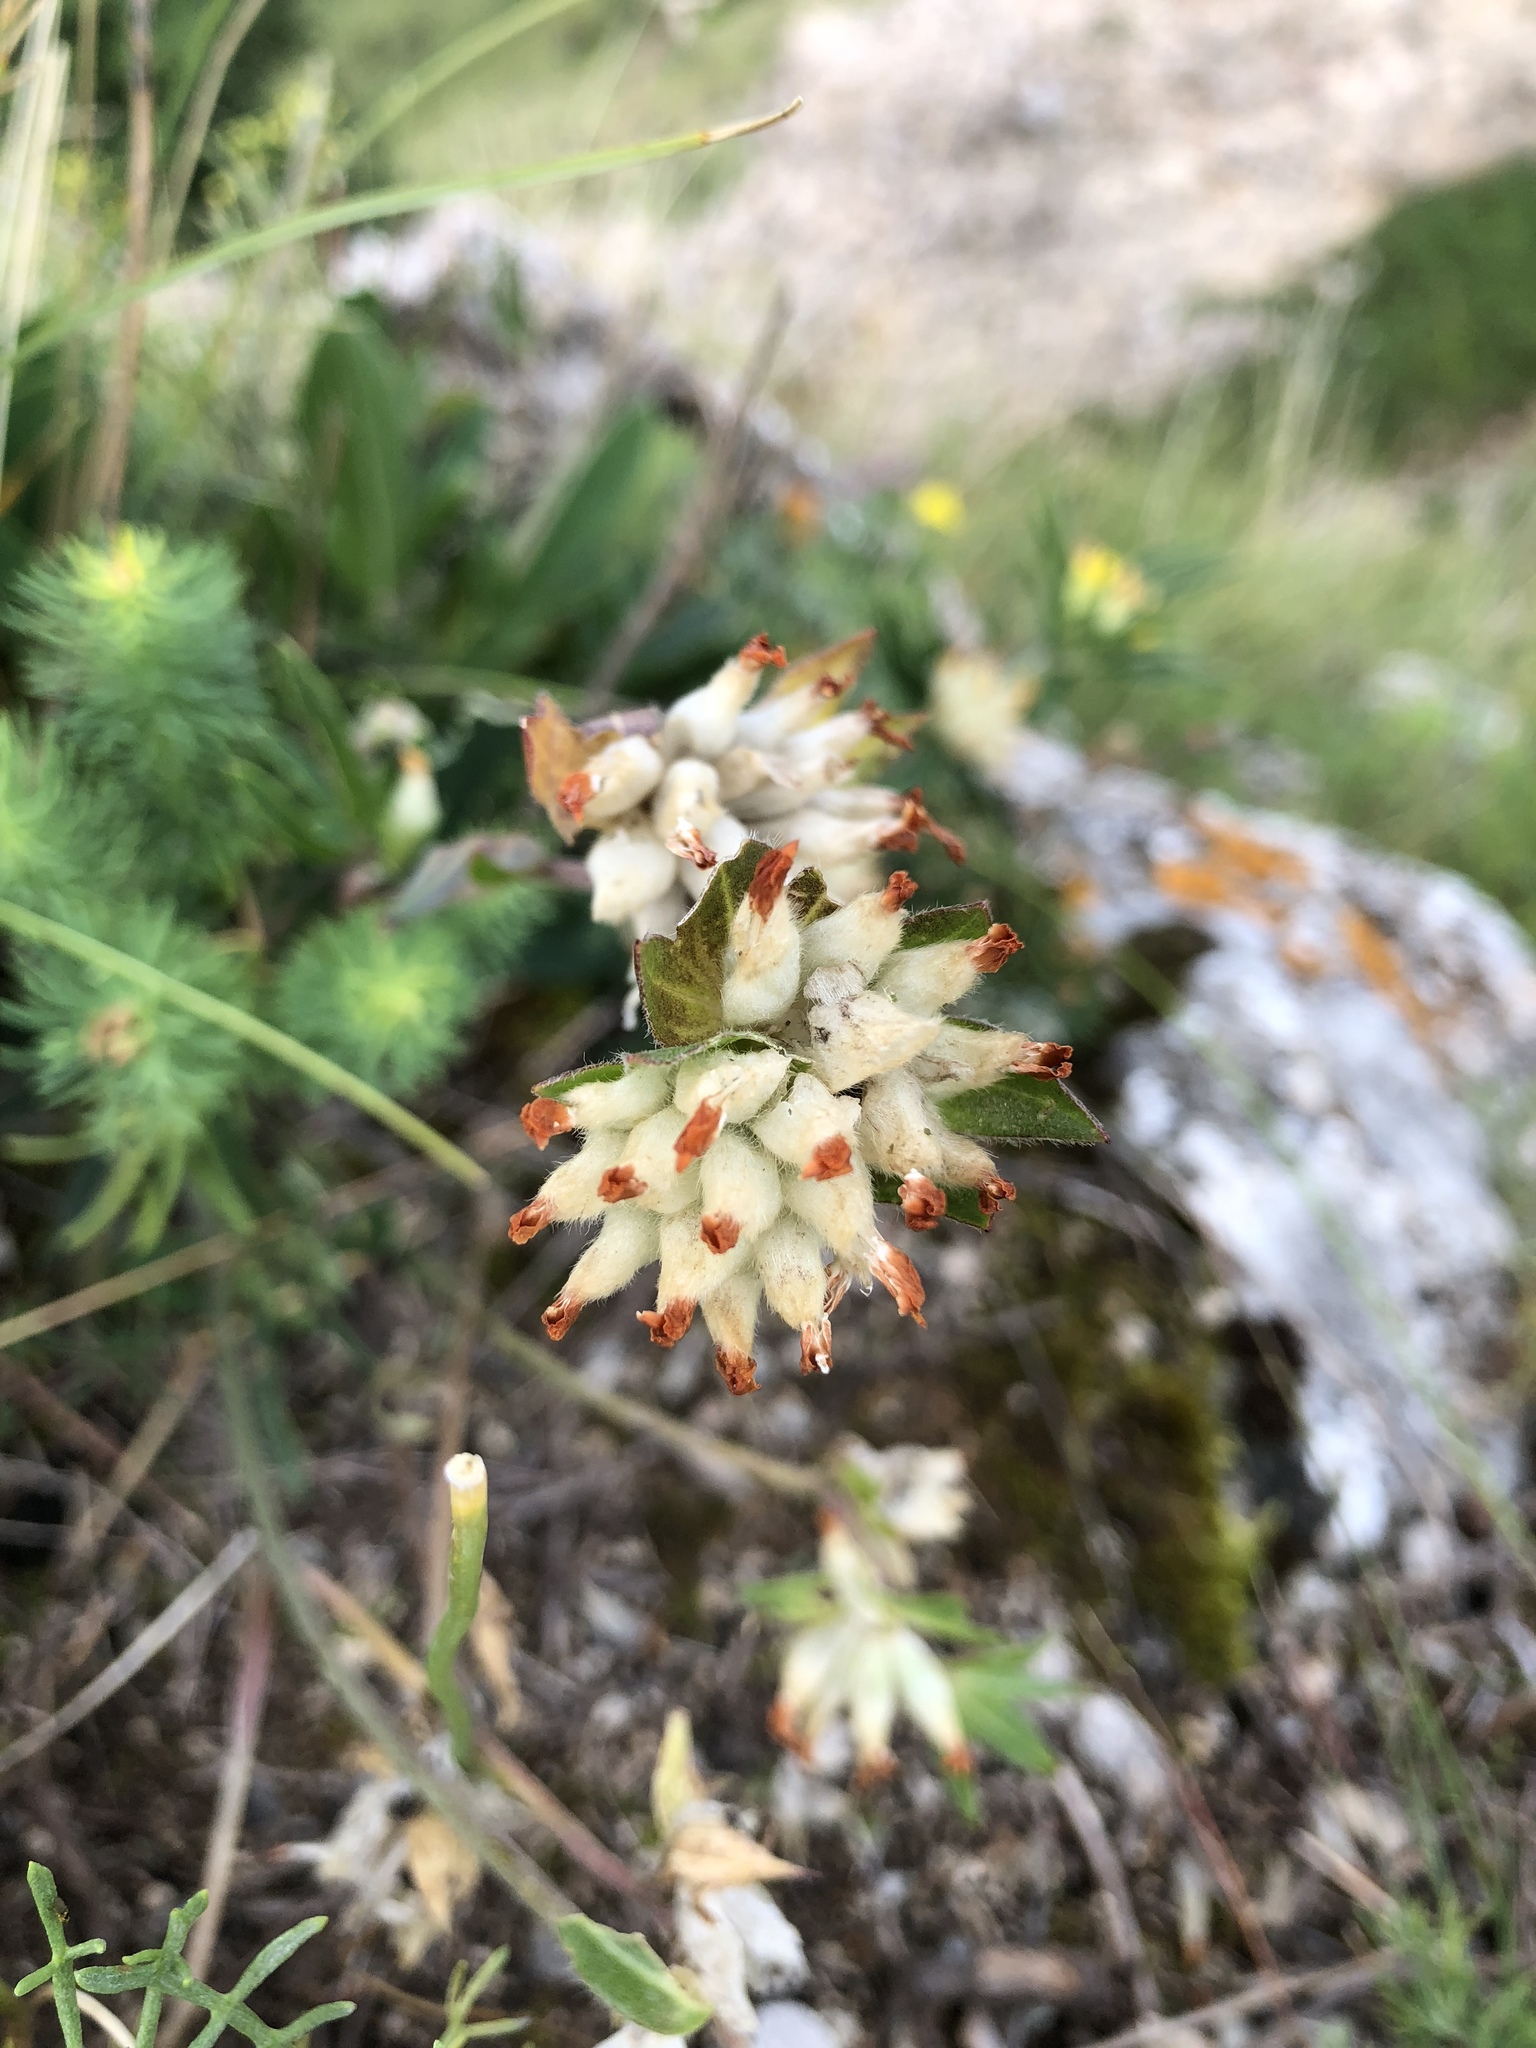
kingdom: Plantae
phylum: Tracheophyta
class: Magnoliopsida
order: Fabales
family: Fabaceae
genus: Anthyllis
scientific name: Anthyllis vulneraria
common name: Kidney vetch
